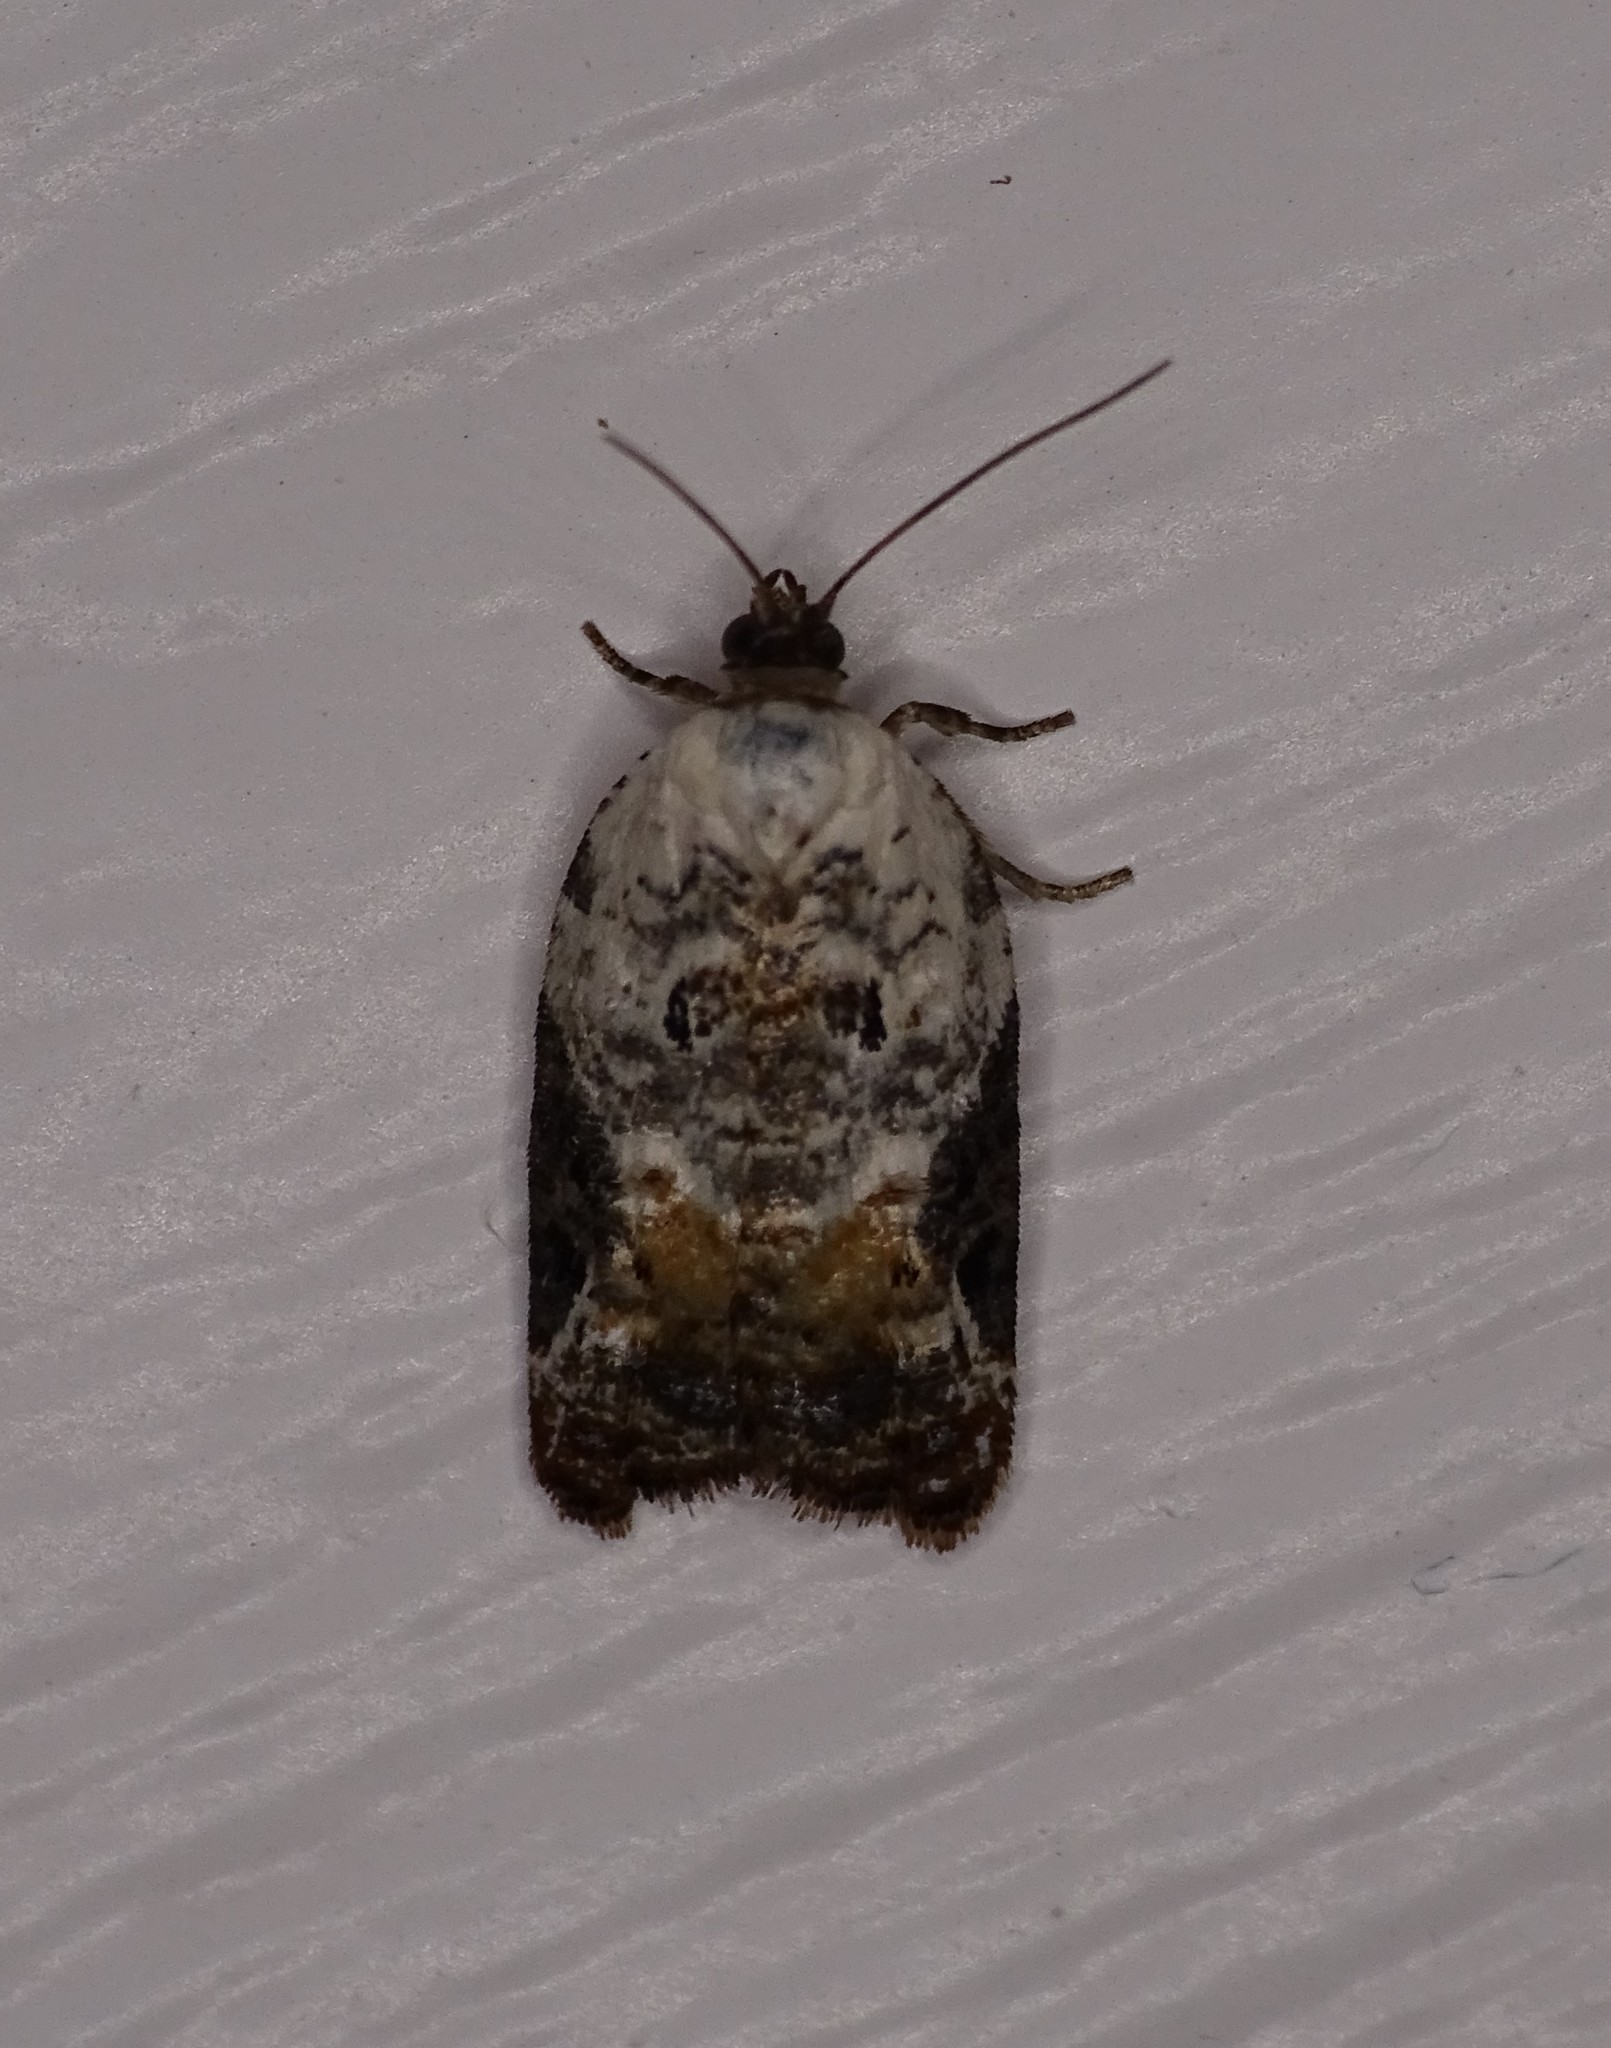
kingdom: Animalia
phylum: Arthropoda
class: Insecta
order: Lepidoptera
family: Tortricidae
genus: Acleris
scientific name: Acleris nivisellana
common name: Snowy-shouldered acleris moth
